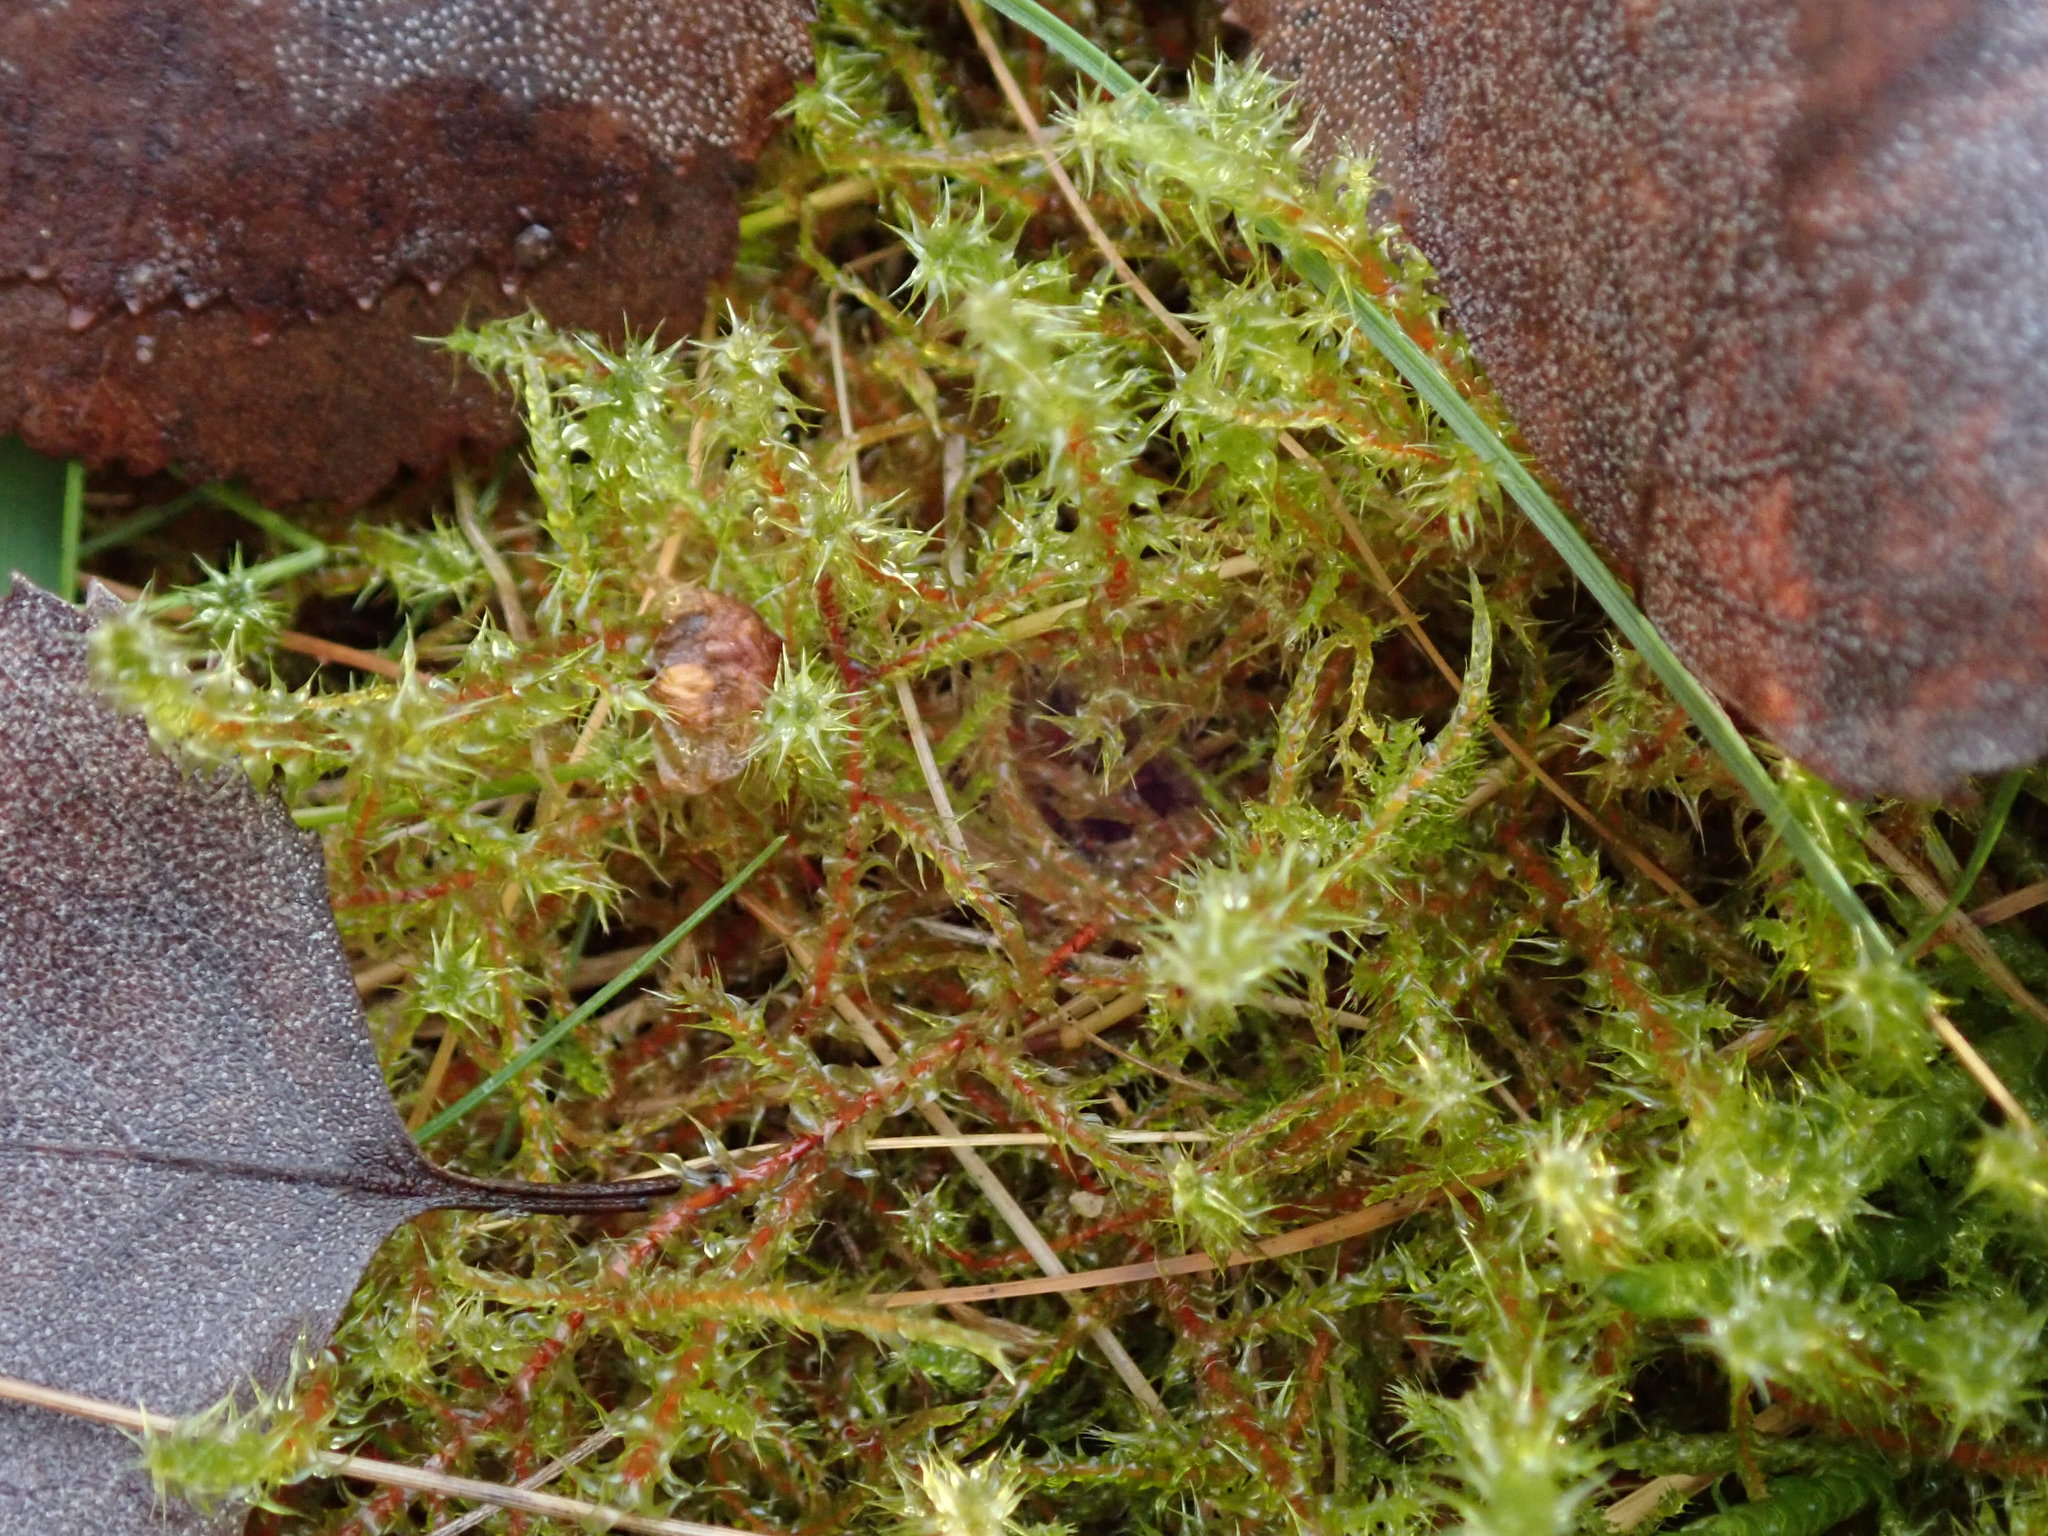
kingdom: Plantae
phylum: Bryophyta
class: Bryopsida
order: Hypnales
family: Hylocomiaceae
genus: Rhytidiadelphus
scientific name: Rhytidiadelphus squarrosus
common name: Springy turf-moss
